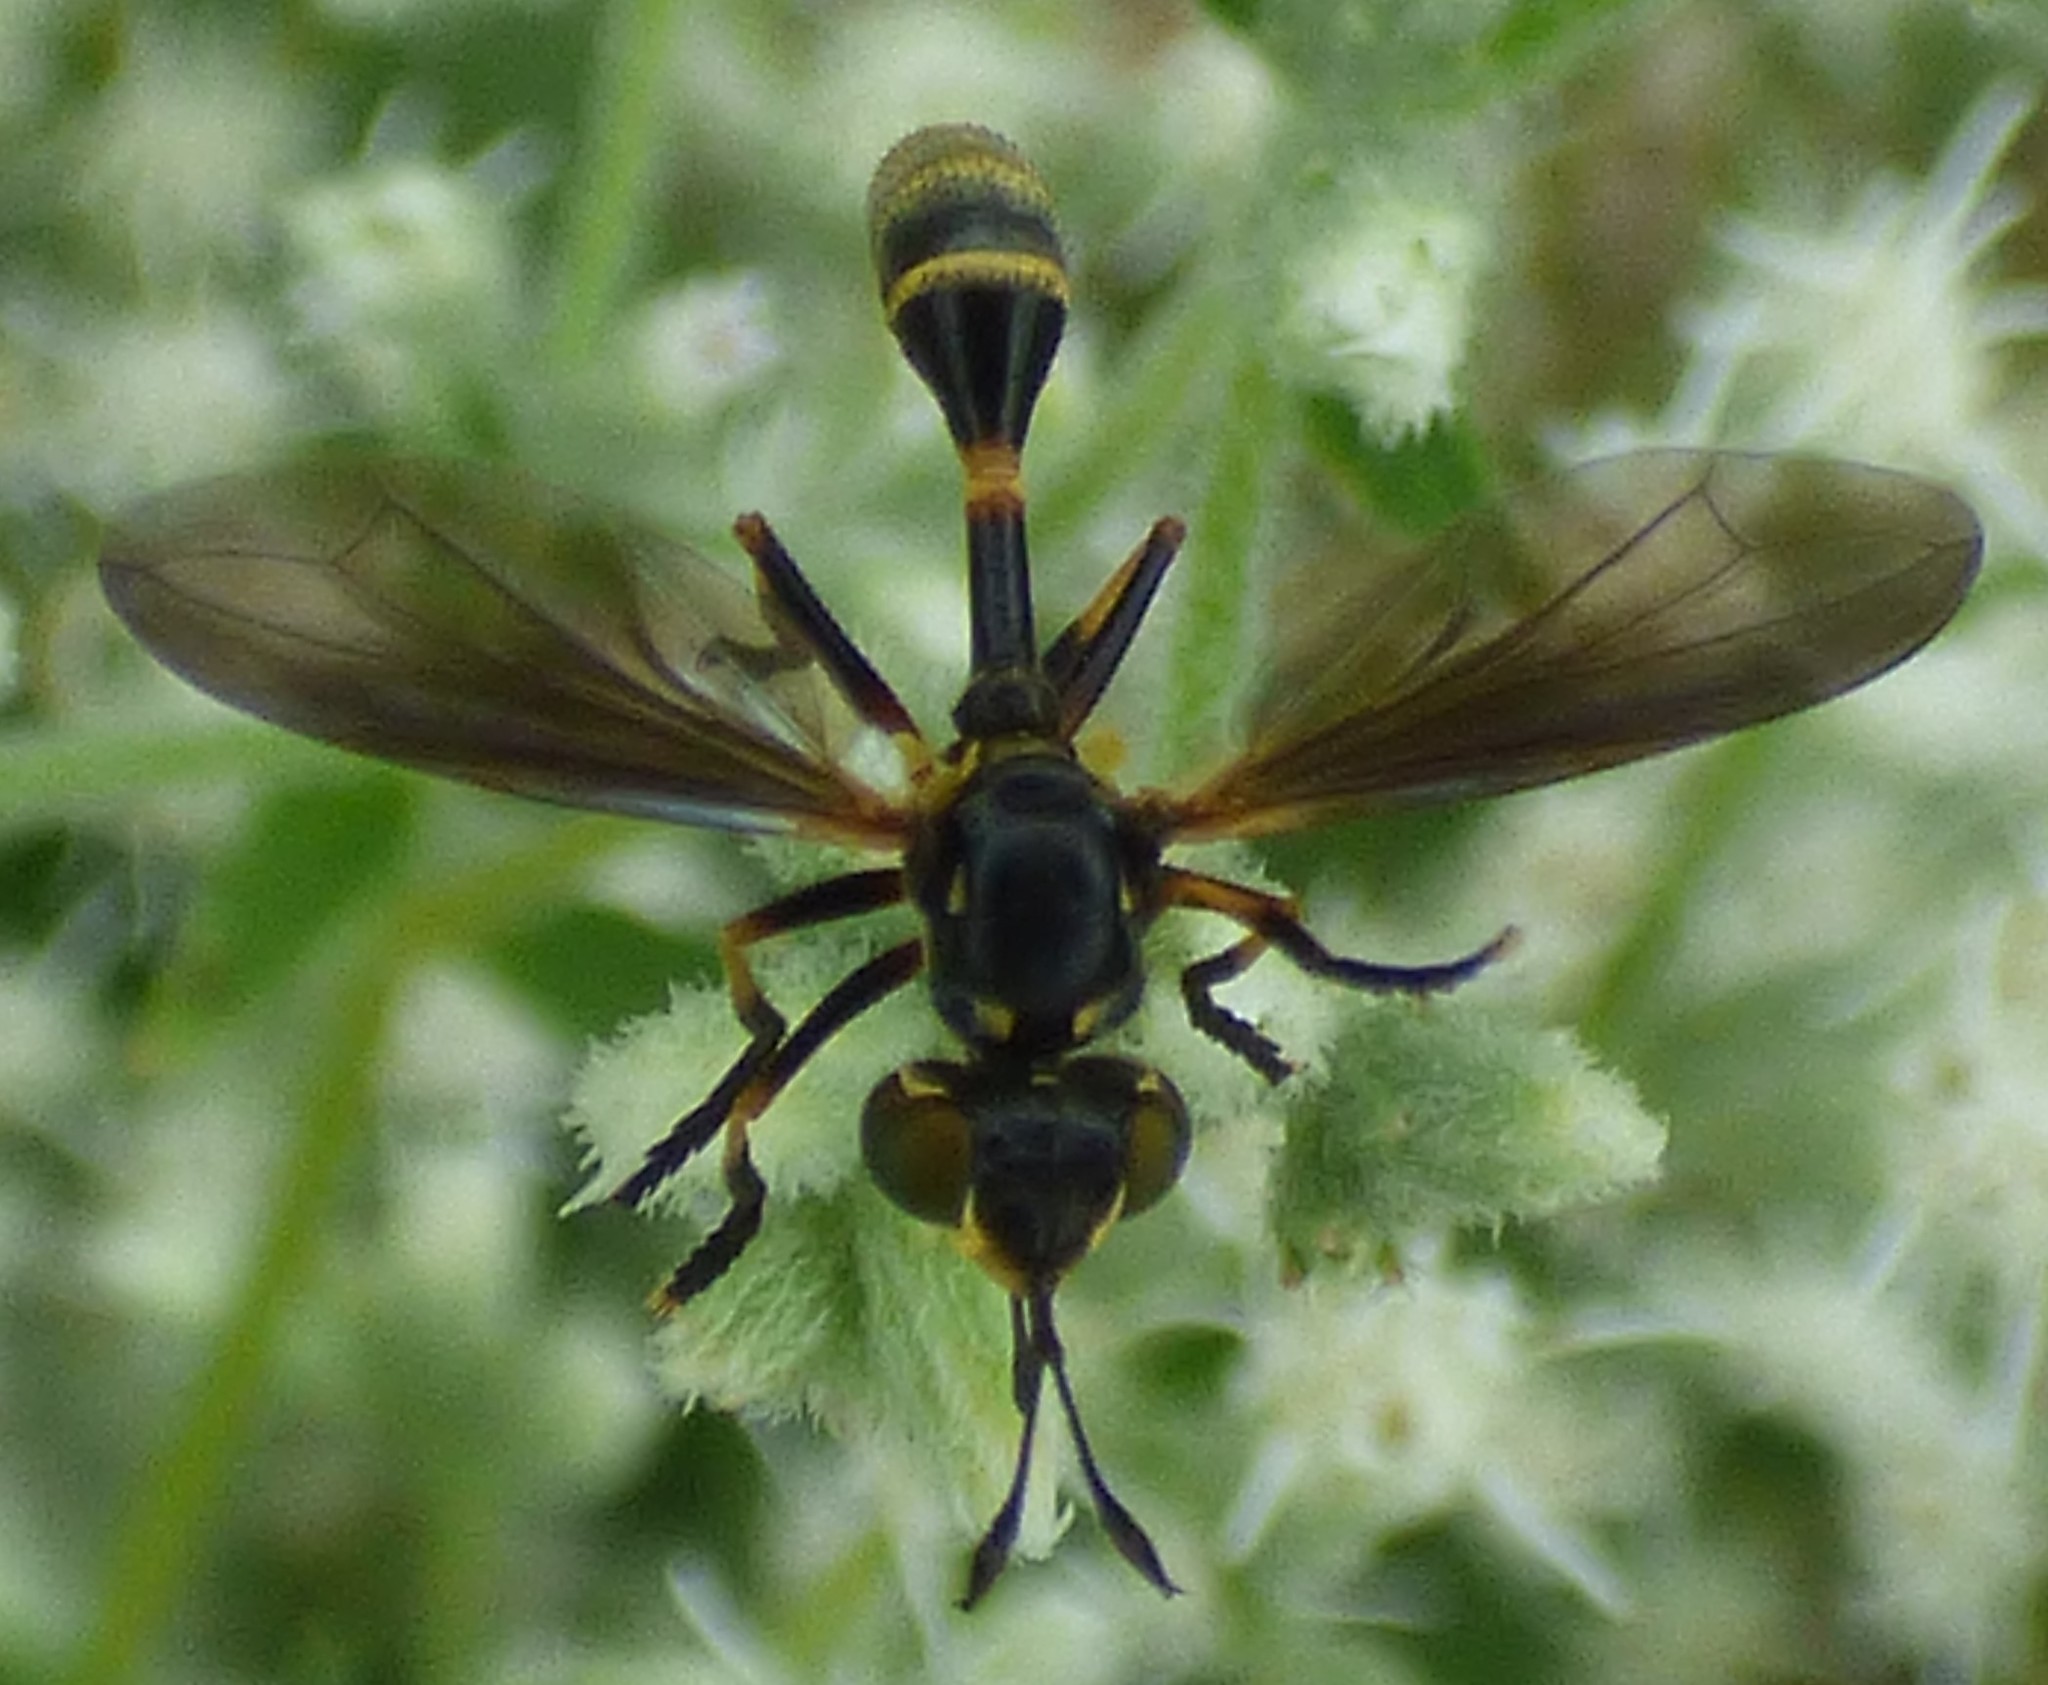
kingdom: Animalia
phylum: Arthropoda
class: Insecta
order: Diptera
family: Conopidae
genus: Physoconops
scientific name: Physoconops obscuripennis
